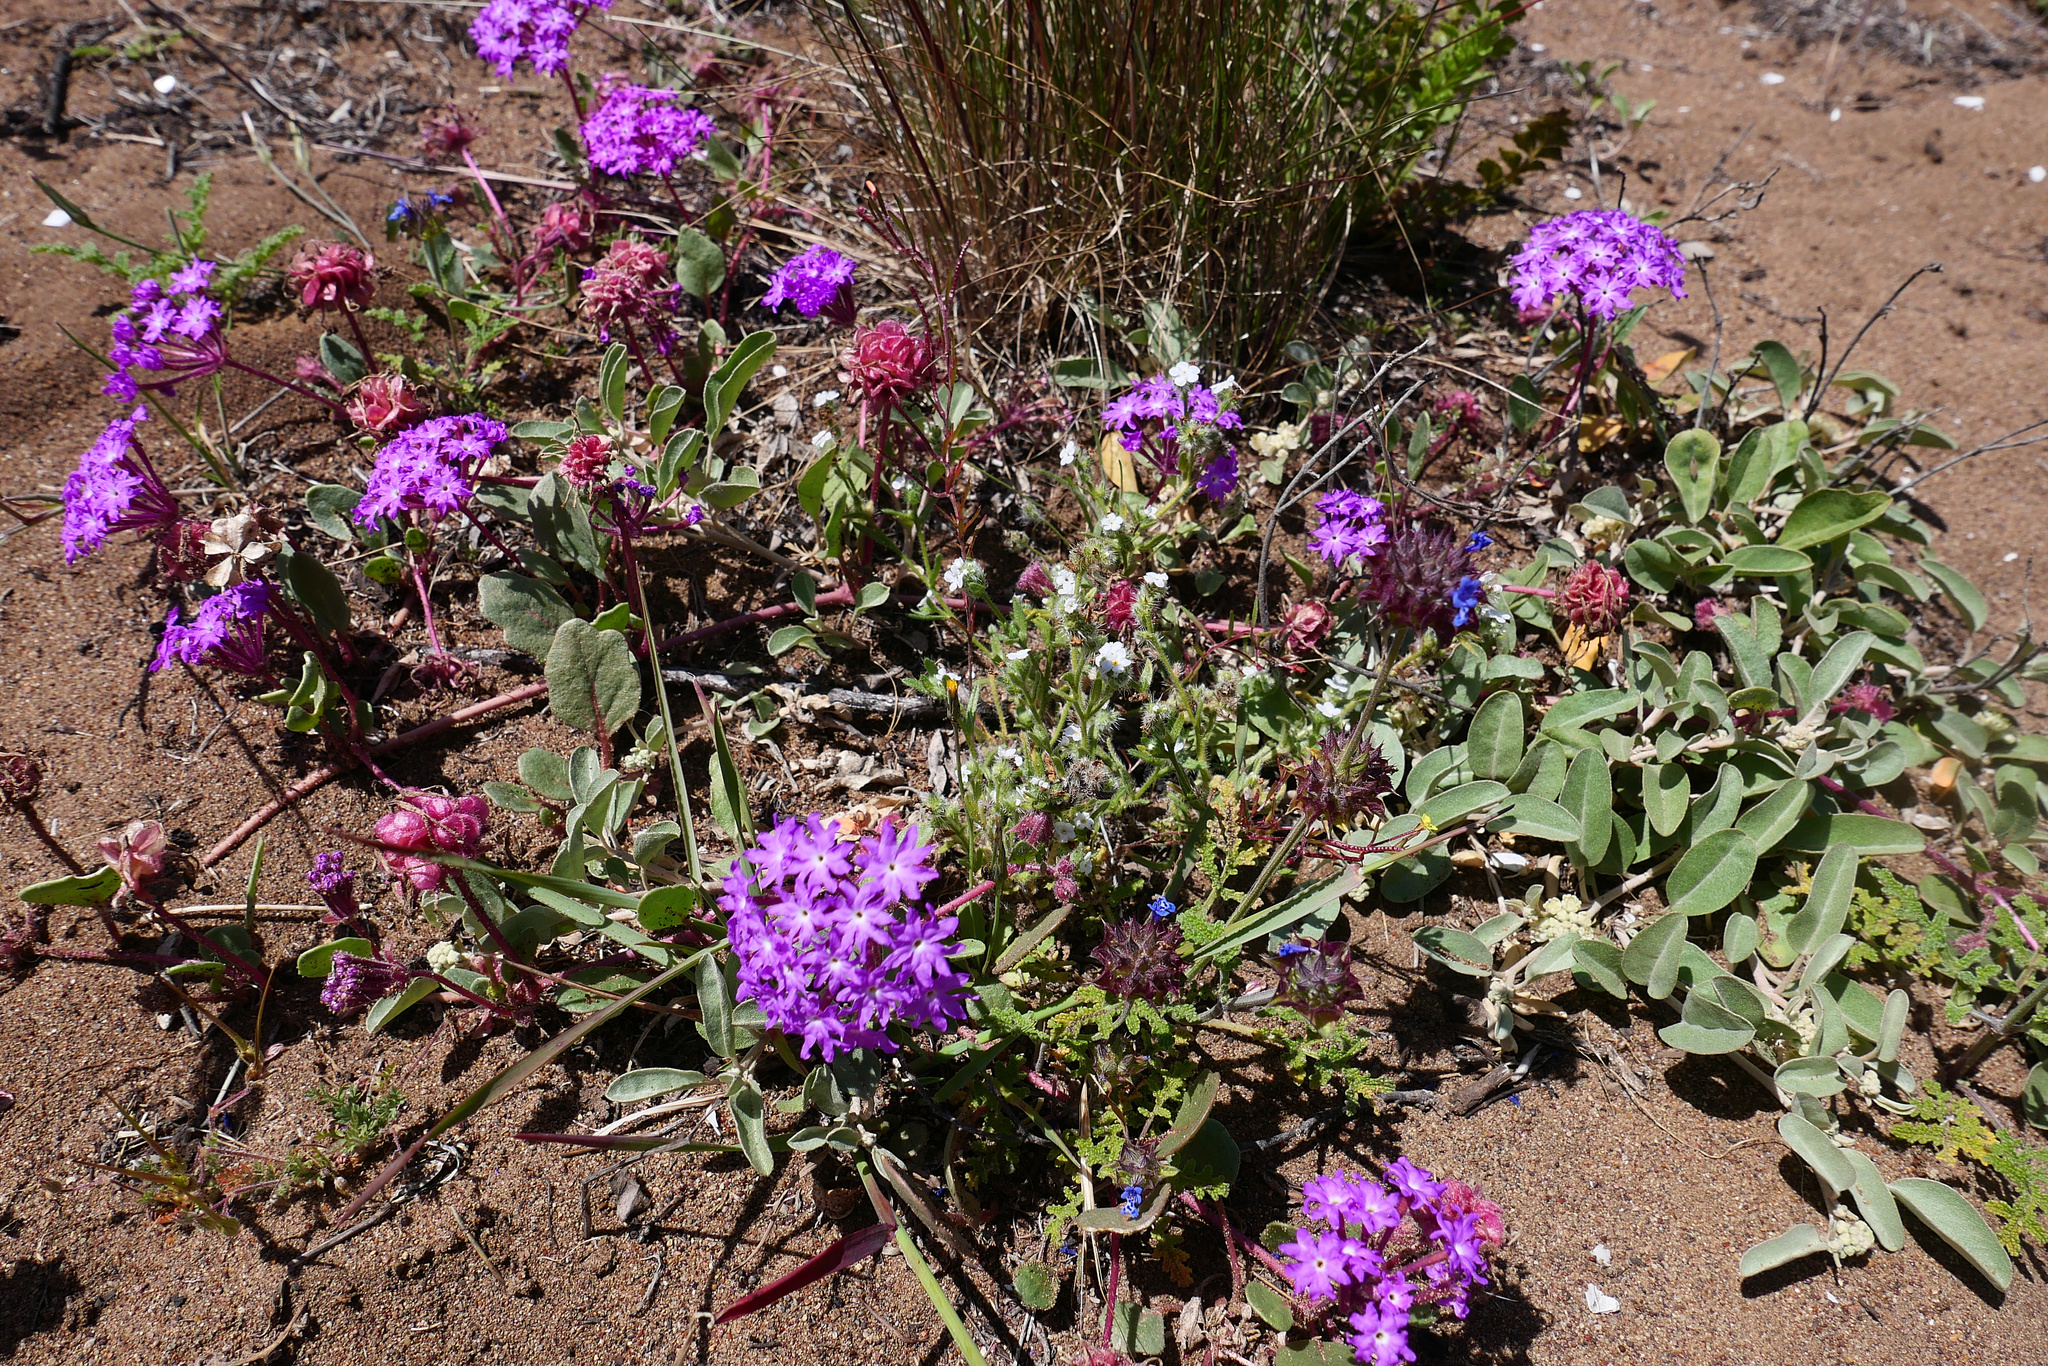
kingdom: Plantae
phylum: Tracheophyta
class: Magnoliopsida
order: Caryophyllales
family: Nyctaginaceae
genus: Abronia
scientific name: Abronia umbellata
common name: Sand-verbena
